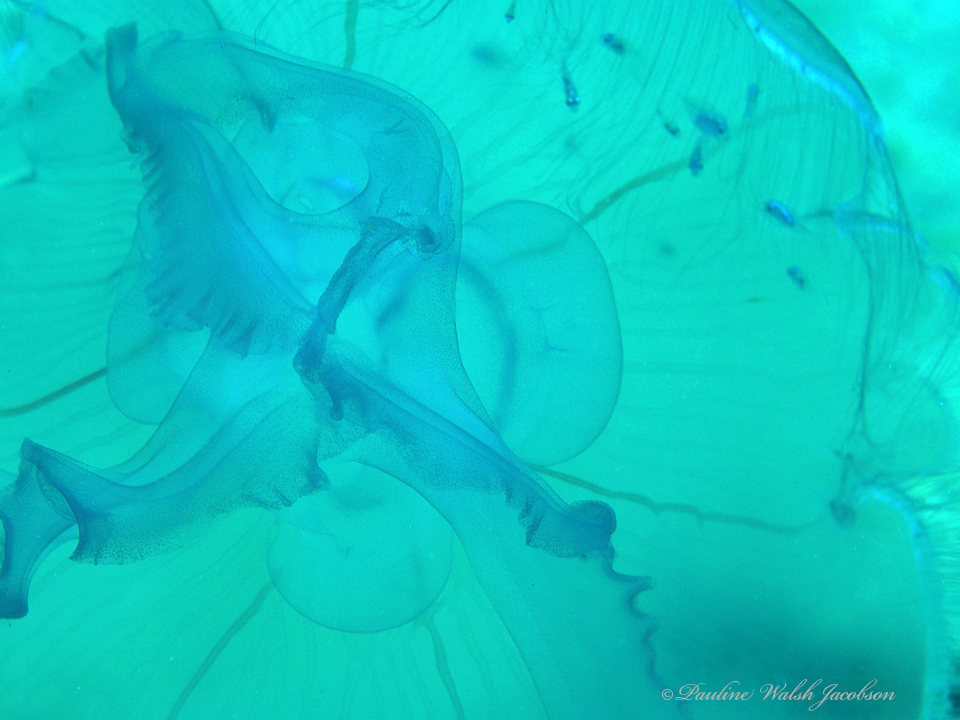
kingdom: Animalia
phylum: Cnidaria
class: Scyphozoa
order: Semaeostomeae
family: Ulmaridae
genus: Aurelia
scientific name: Aurelia marginalis
